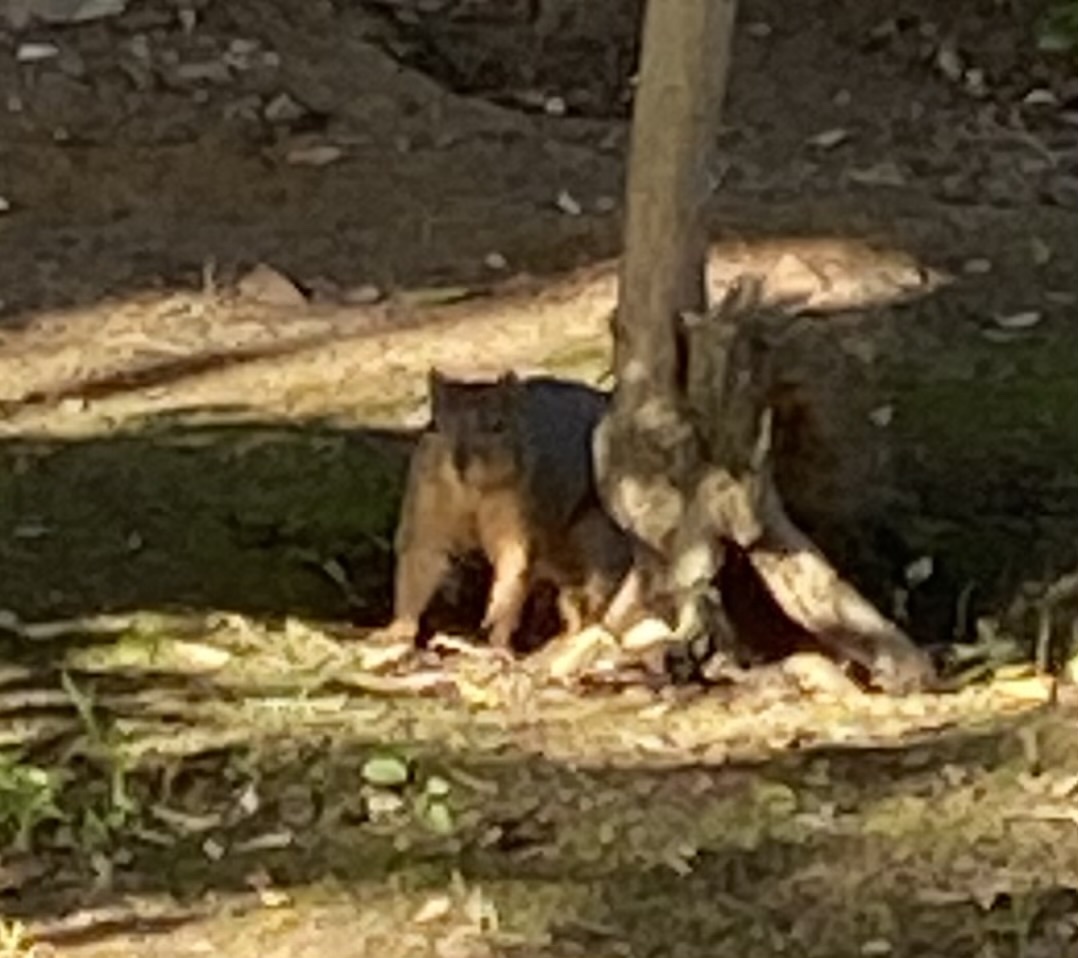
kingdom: Animalia
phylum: Chordata
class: Mammalia
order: Rodentia
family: Sciuridae
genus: Sciurus
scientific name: Sciurus niger
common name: Fox squirrel
